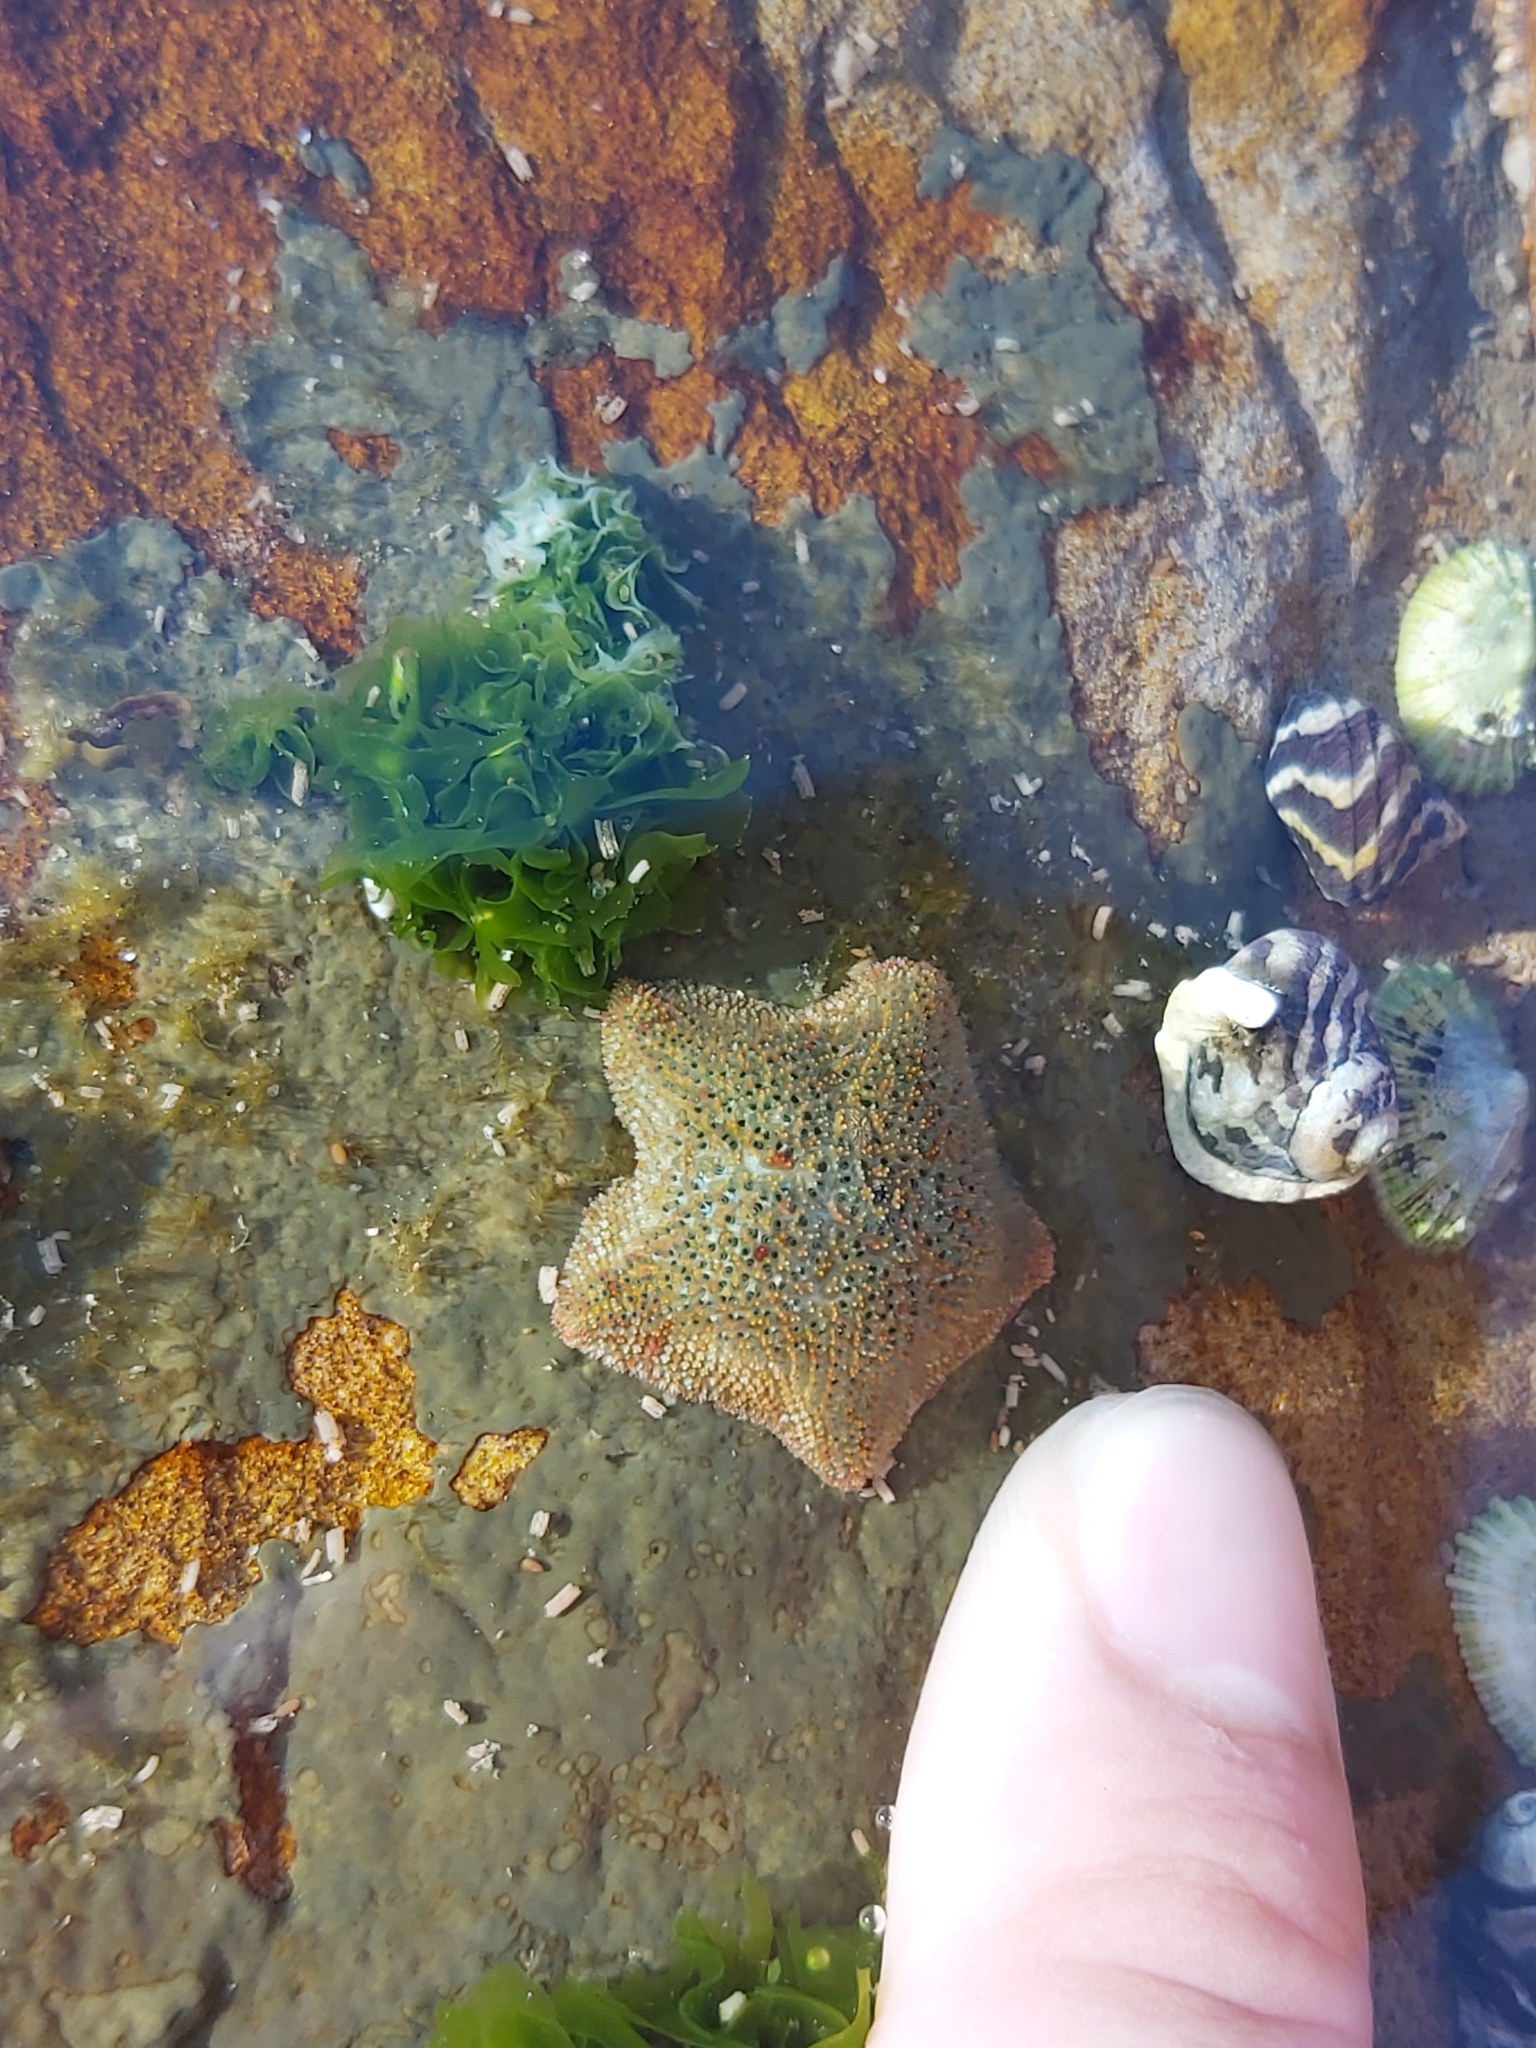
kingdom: Animalia
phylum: Echinodermata
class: Asteroidea
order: Valvatida
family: Asterinidae
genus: Parvulastra
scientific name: Parvulastra exigua
